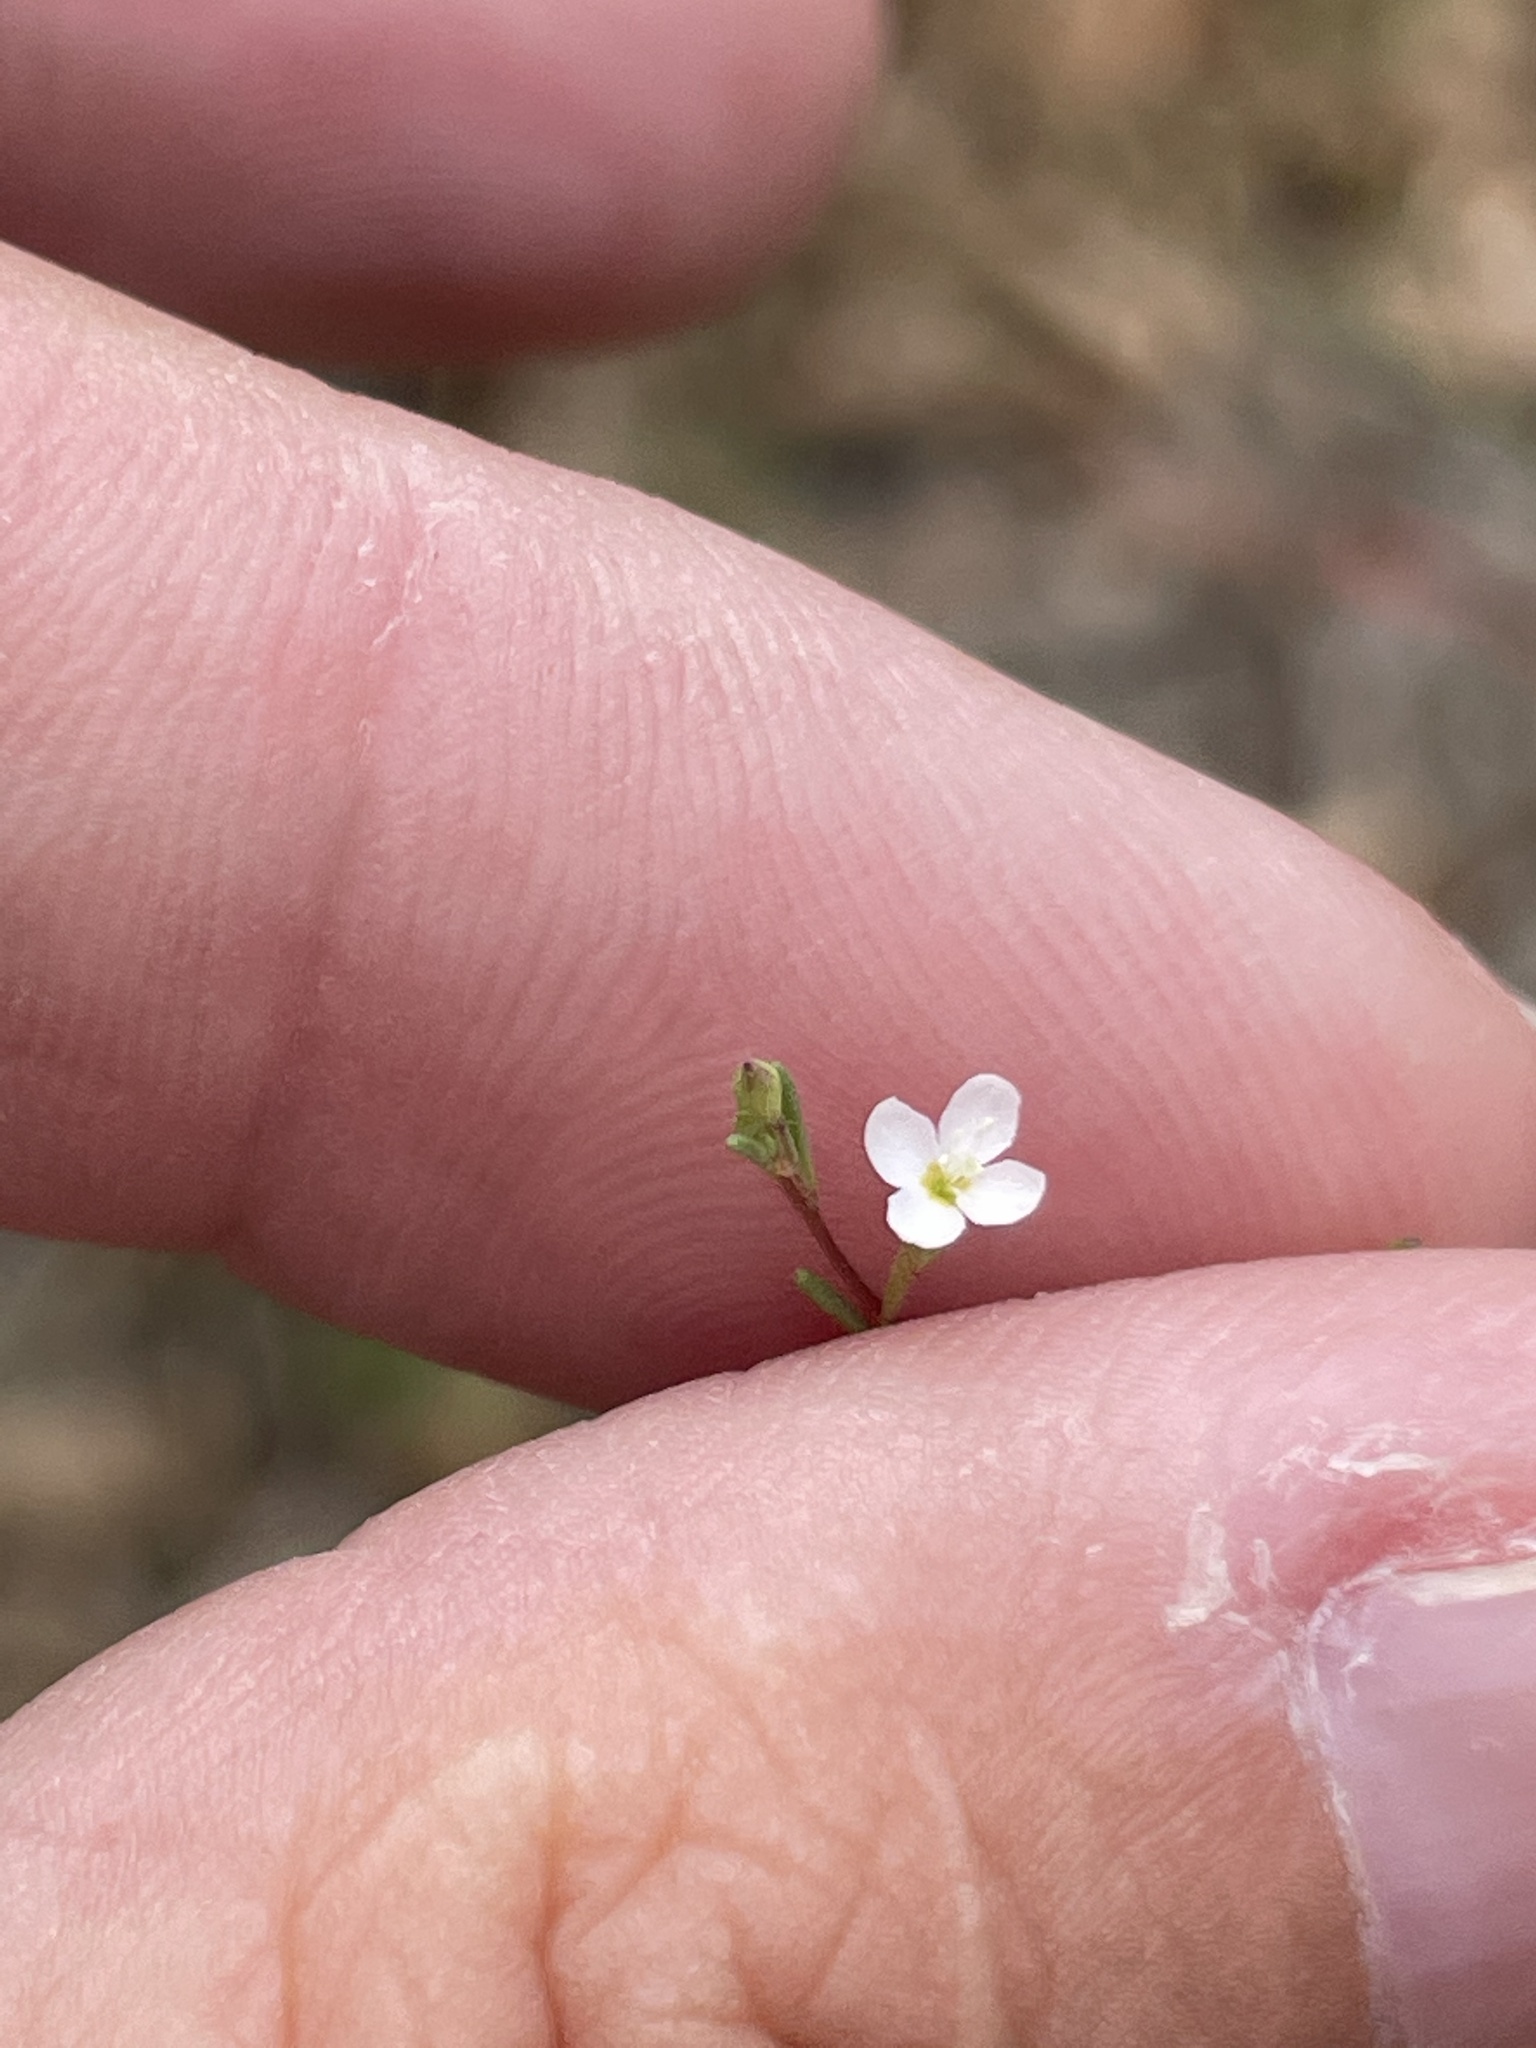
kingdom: Plantae
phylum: Tracheophyta
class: Magnoliopsida
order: Myrtales
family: Onagraceae
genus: Gayophytum
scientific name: Gayophytum diffusum
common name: Big-flowered groundsmoke
